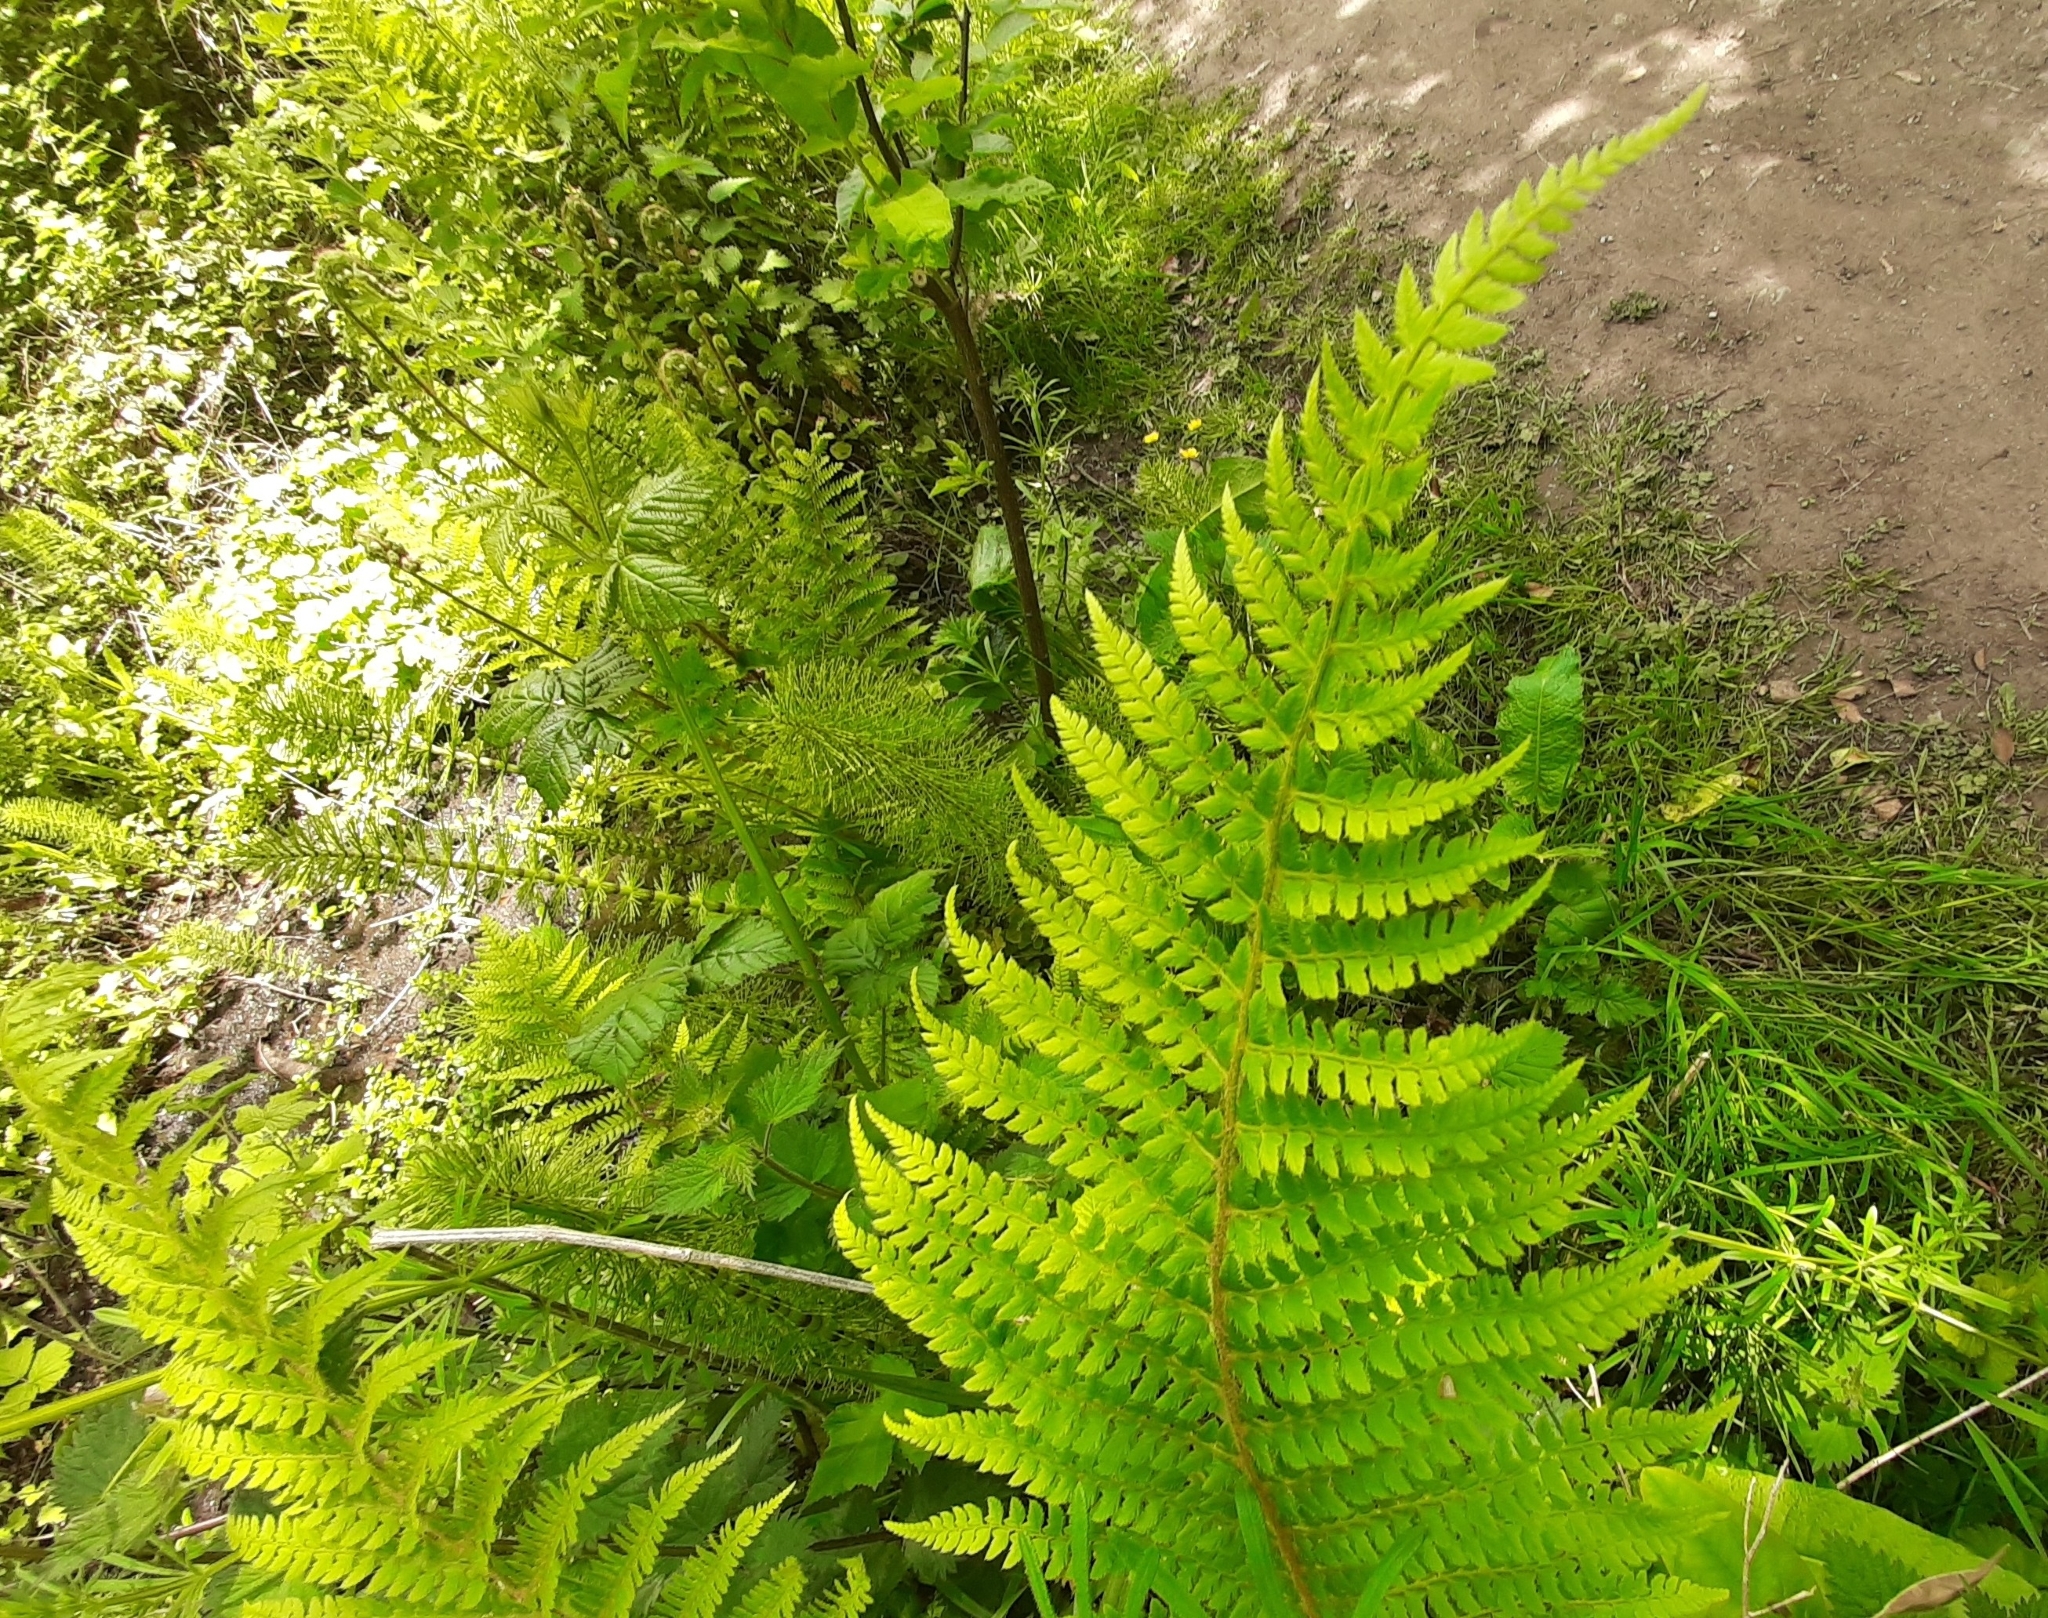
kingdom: Plantae
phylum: Tracheophyta
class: Polypodiopsida
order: Polypodiales
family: Dryopteridaceae
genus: Polystichum
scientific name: Polystichum setiferum
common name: Soft shield-fern
